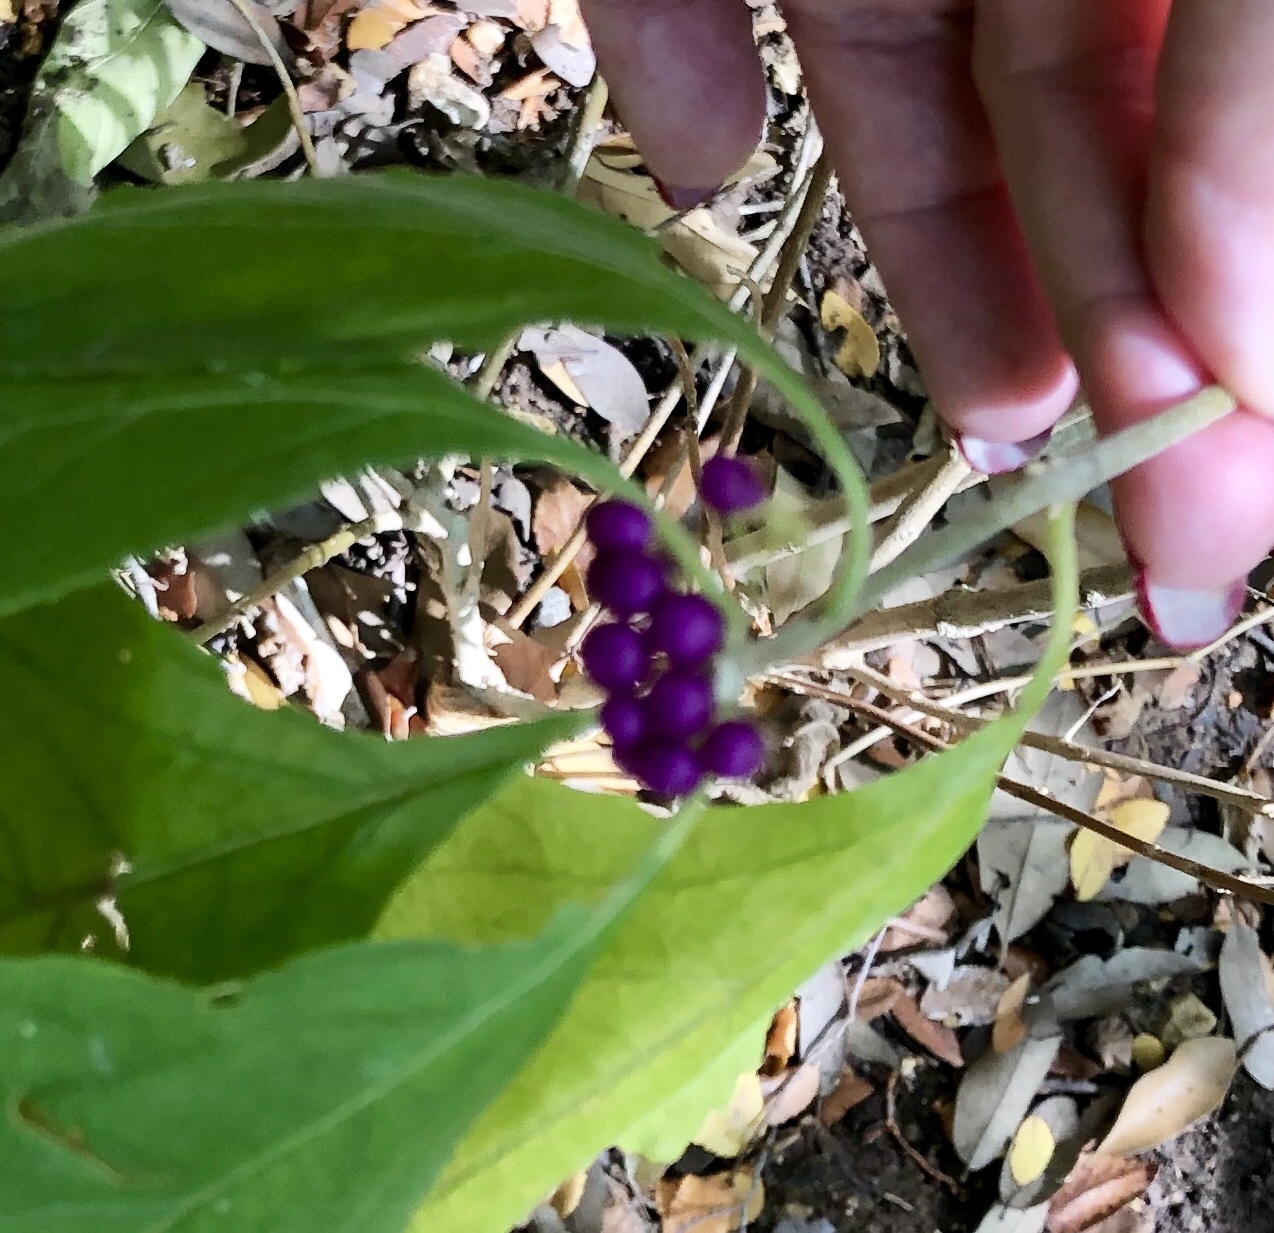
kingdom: Plantae
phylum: Tracheophyta
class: Magnoliopsida
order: Lamiales
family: Lamiaceae
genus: Callicarpa
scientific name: Callicarpa americana
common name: American beautyberry
